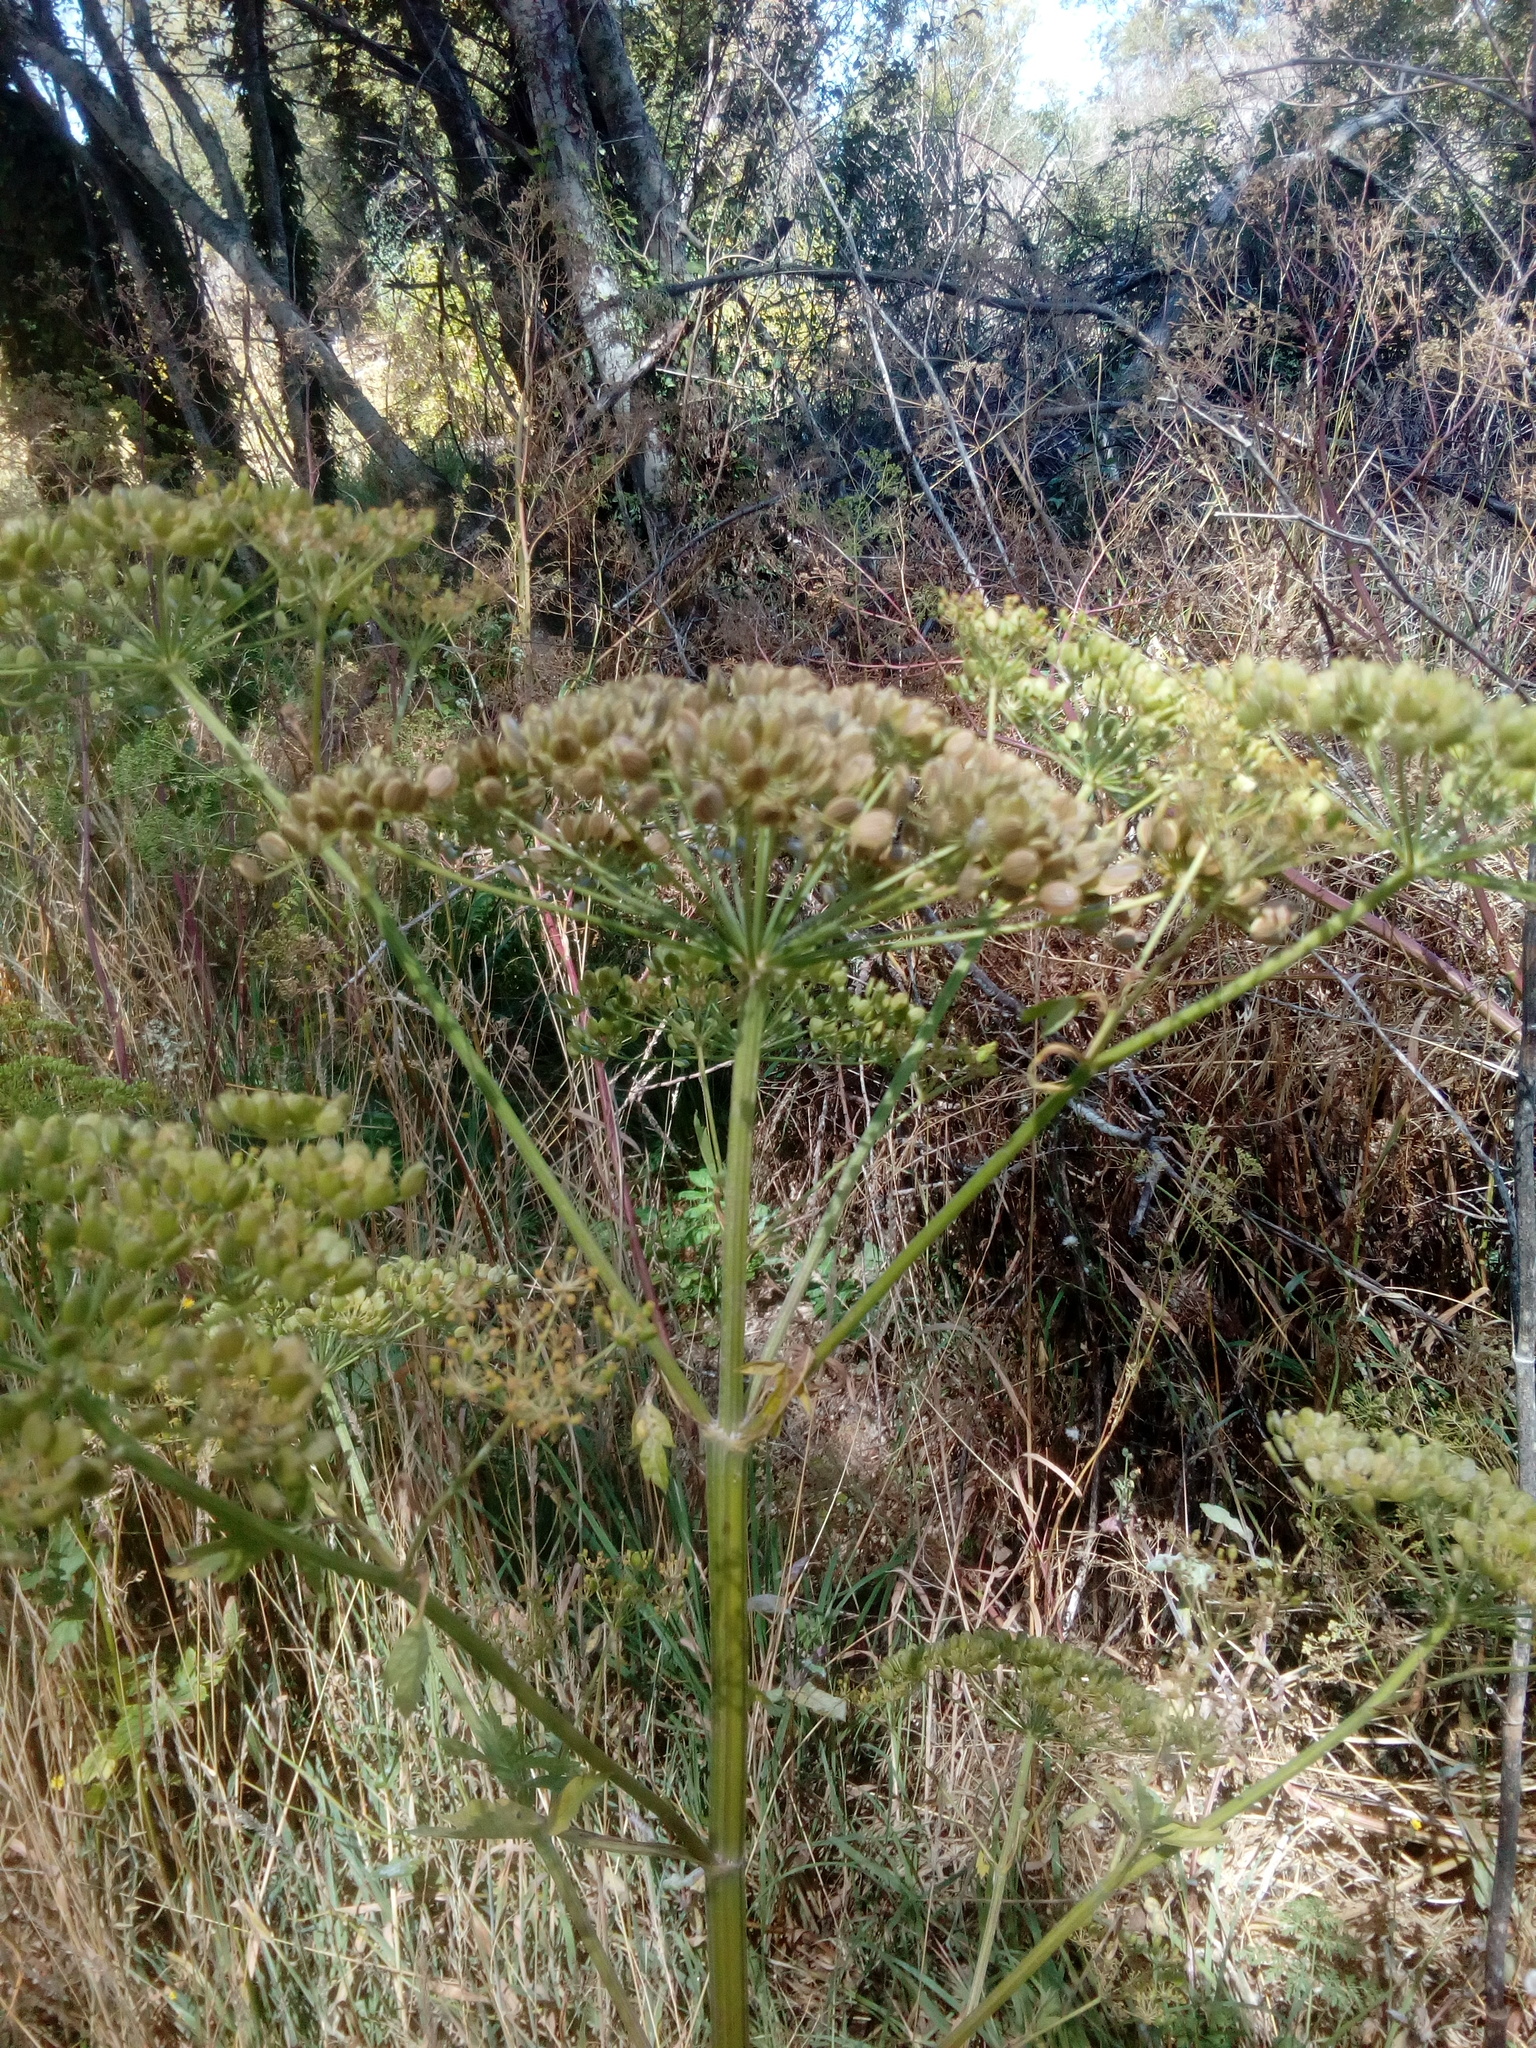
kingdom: Plantae
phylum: Tracheophyta
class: Magnoliopsida
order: Apiales
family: Apiaceae
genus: Pastinaca
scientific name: Pastinaca sativa
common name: Wild parsnip
